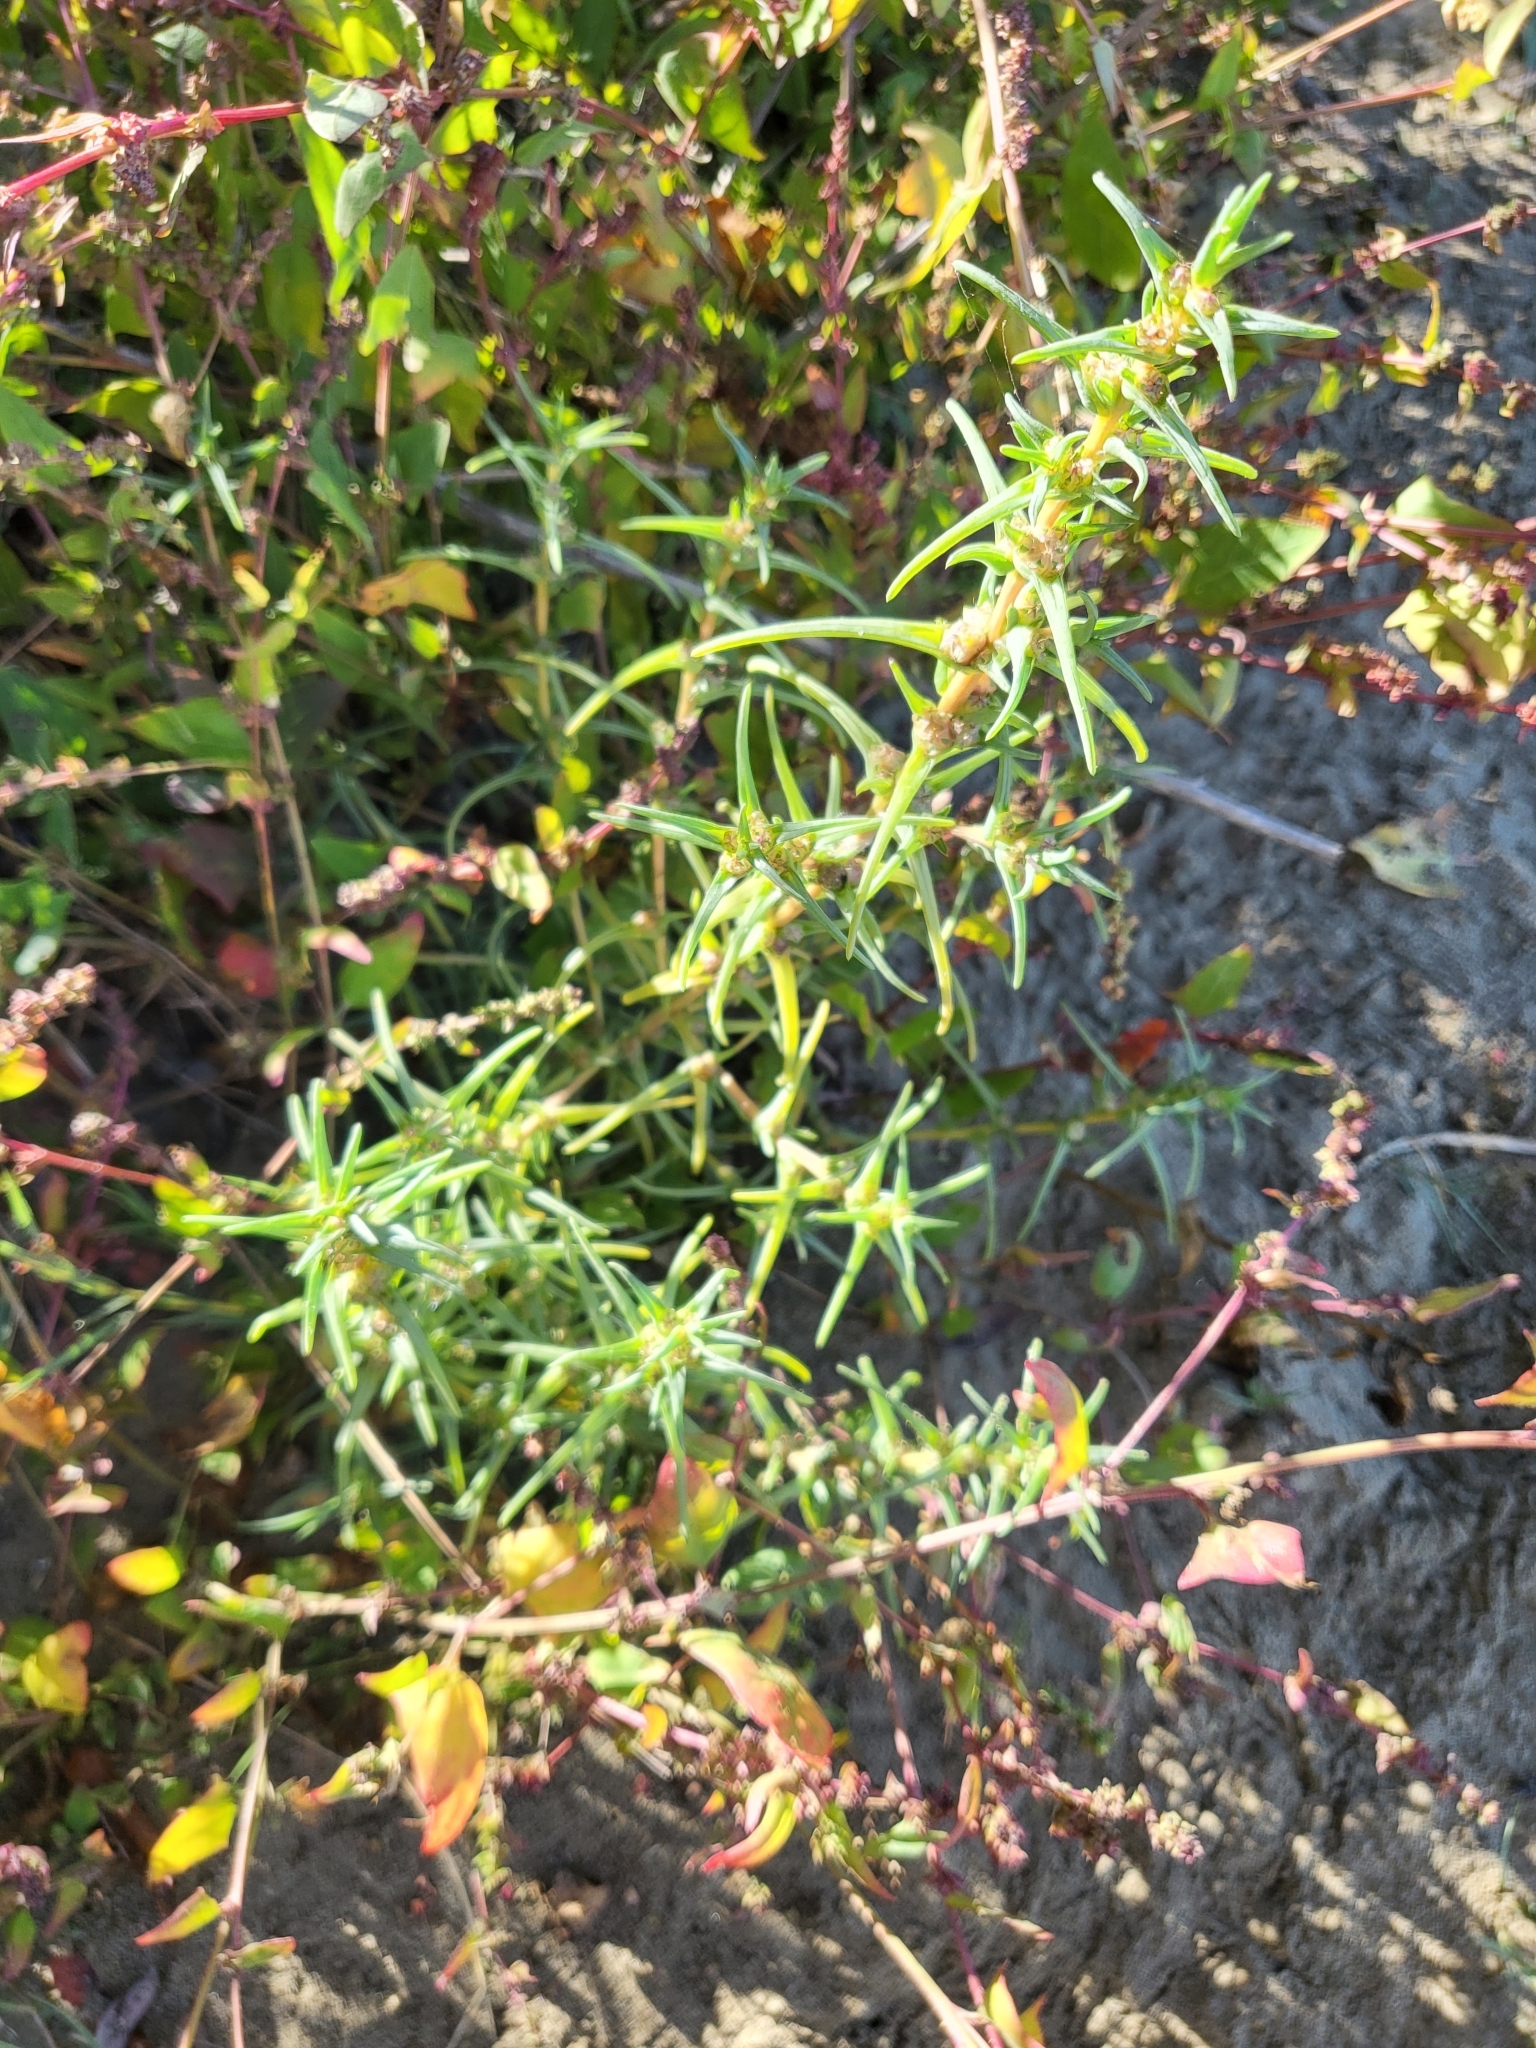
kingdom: Plantae
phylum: Tracheophyta
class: Magnoliopsida
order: Caryophyllales
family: Amaranthaceae
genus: Salsola
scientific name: Salsola soda
